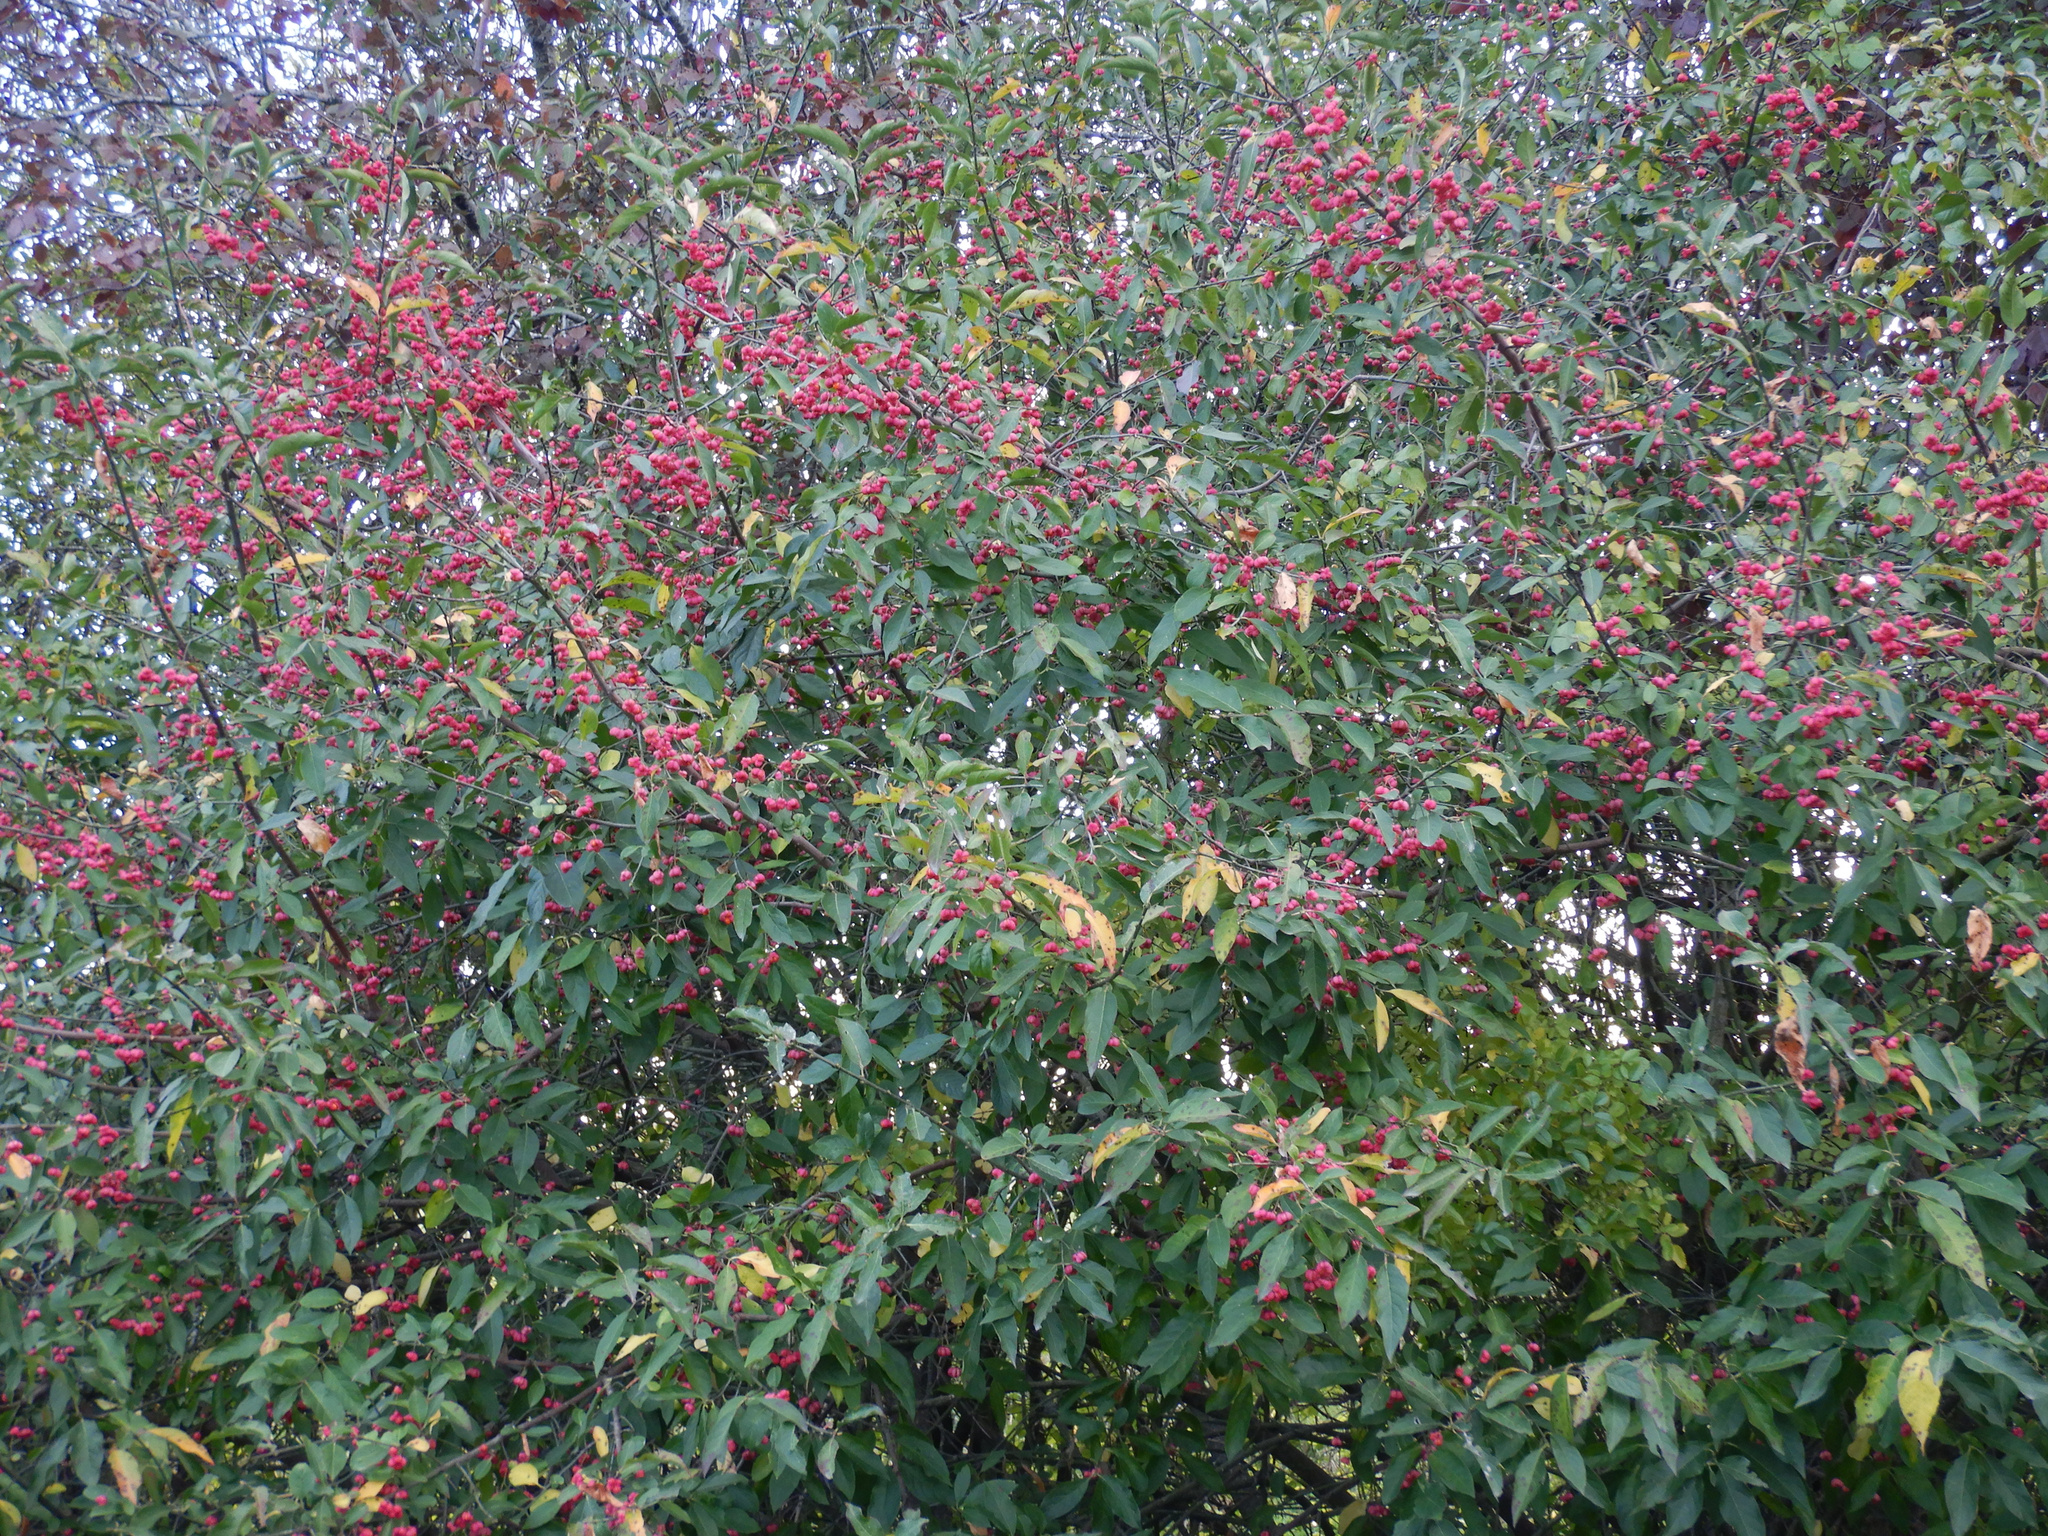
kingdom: Plantae
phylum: Tracheophyta
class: Magnoliopsida
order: Celastrales
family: Celastraceae
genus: Euonymus
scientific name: Euonymus europaeus
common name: Spindle
